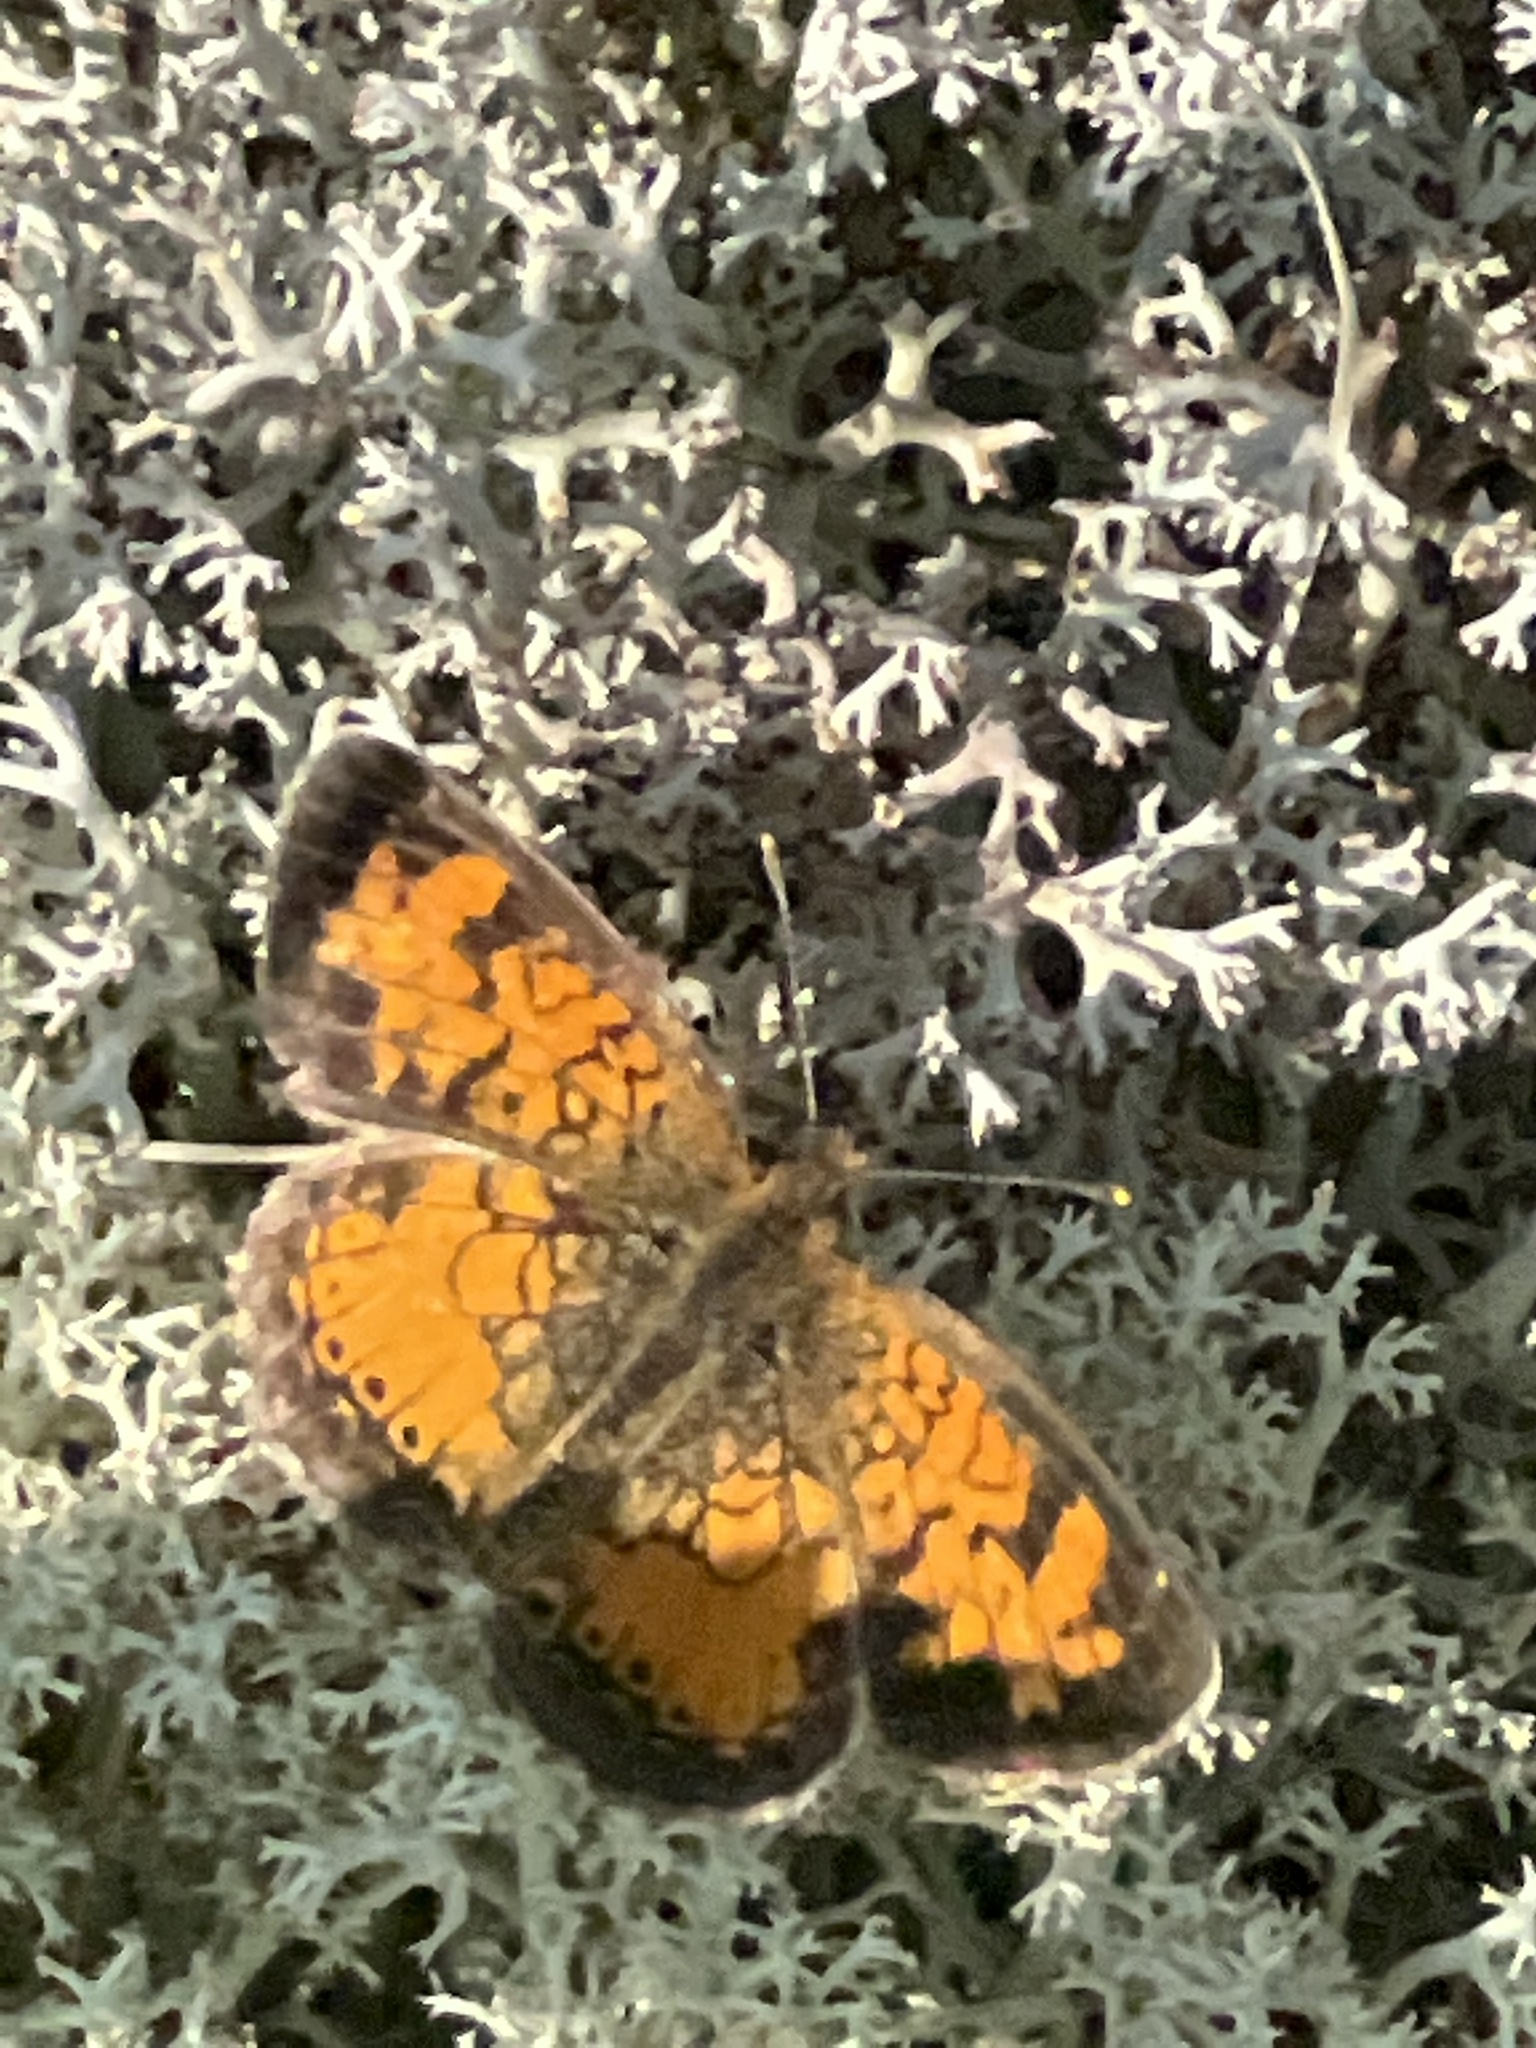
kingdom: Animalia
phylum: Arthropoda
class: Insecta
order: Lepidoptera
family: Nymphalidae
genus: Phyciodes
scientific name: Phyciodes tharos
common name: Pearl crescent
